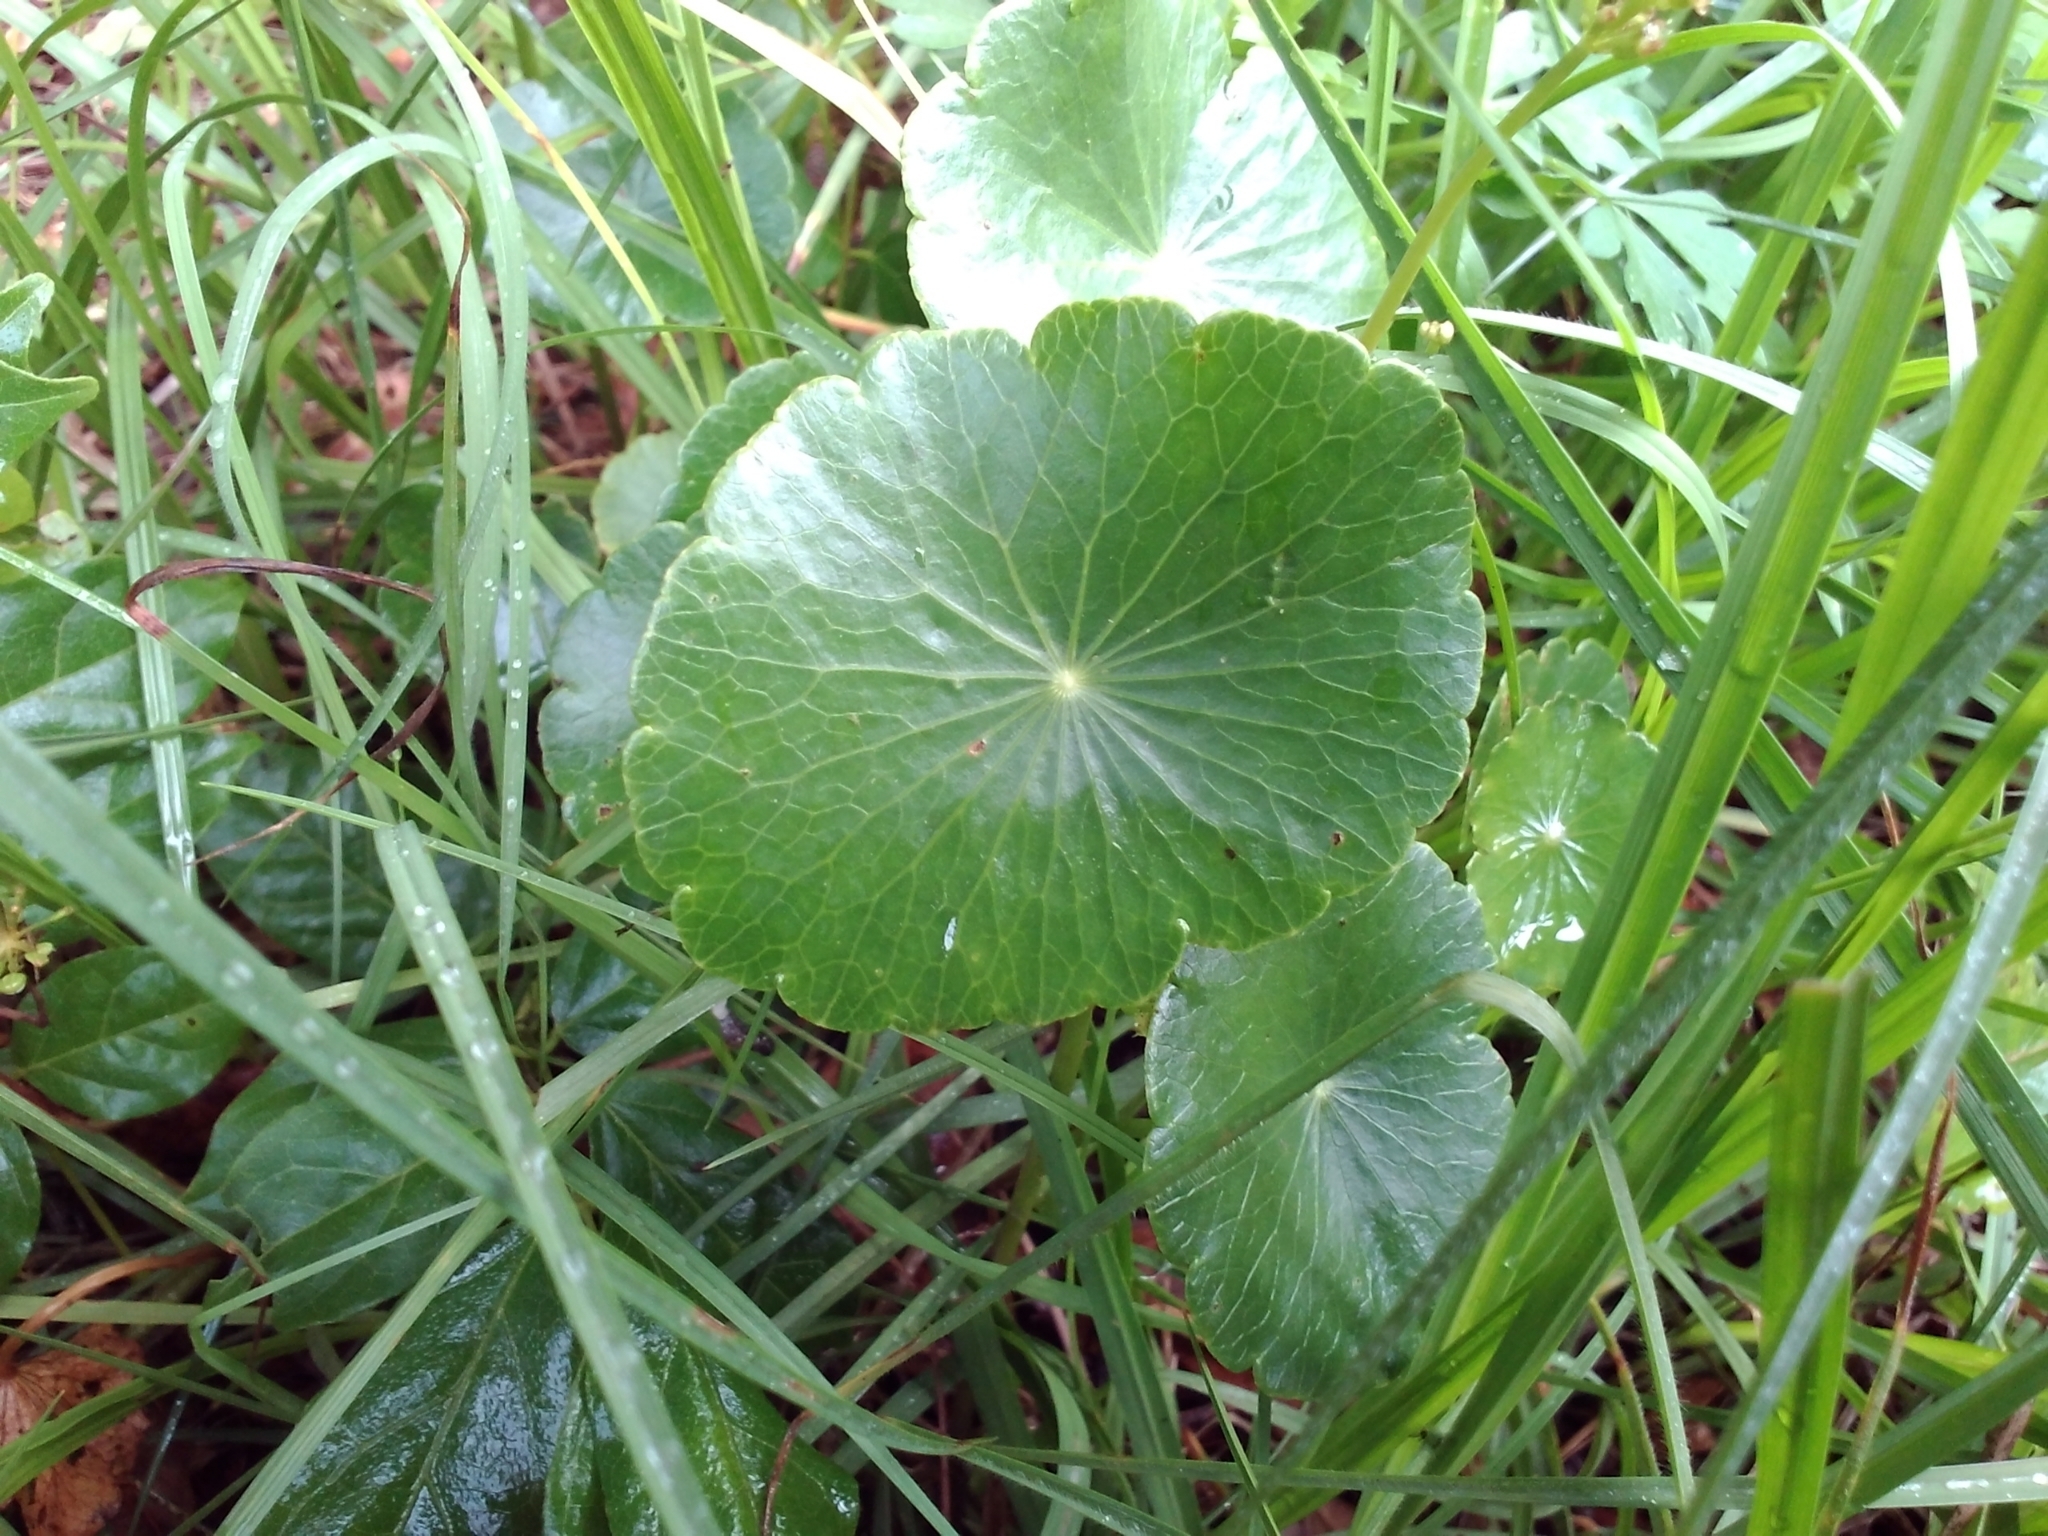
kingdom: Plantae
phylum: Tracheophyta
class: Magnoliopsida
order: Apiales
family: Araliaceae
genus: Hydrocotyle
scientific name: Hydrocotyle bonariensis
